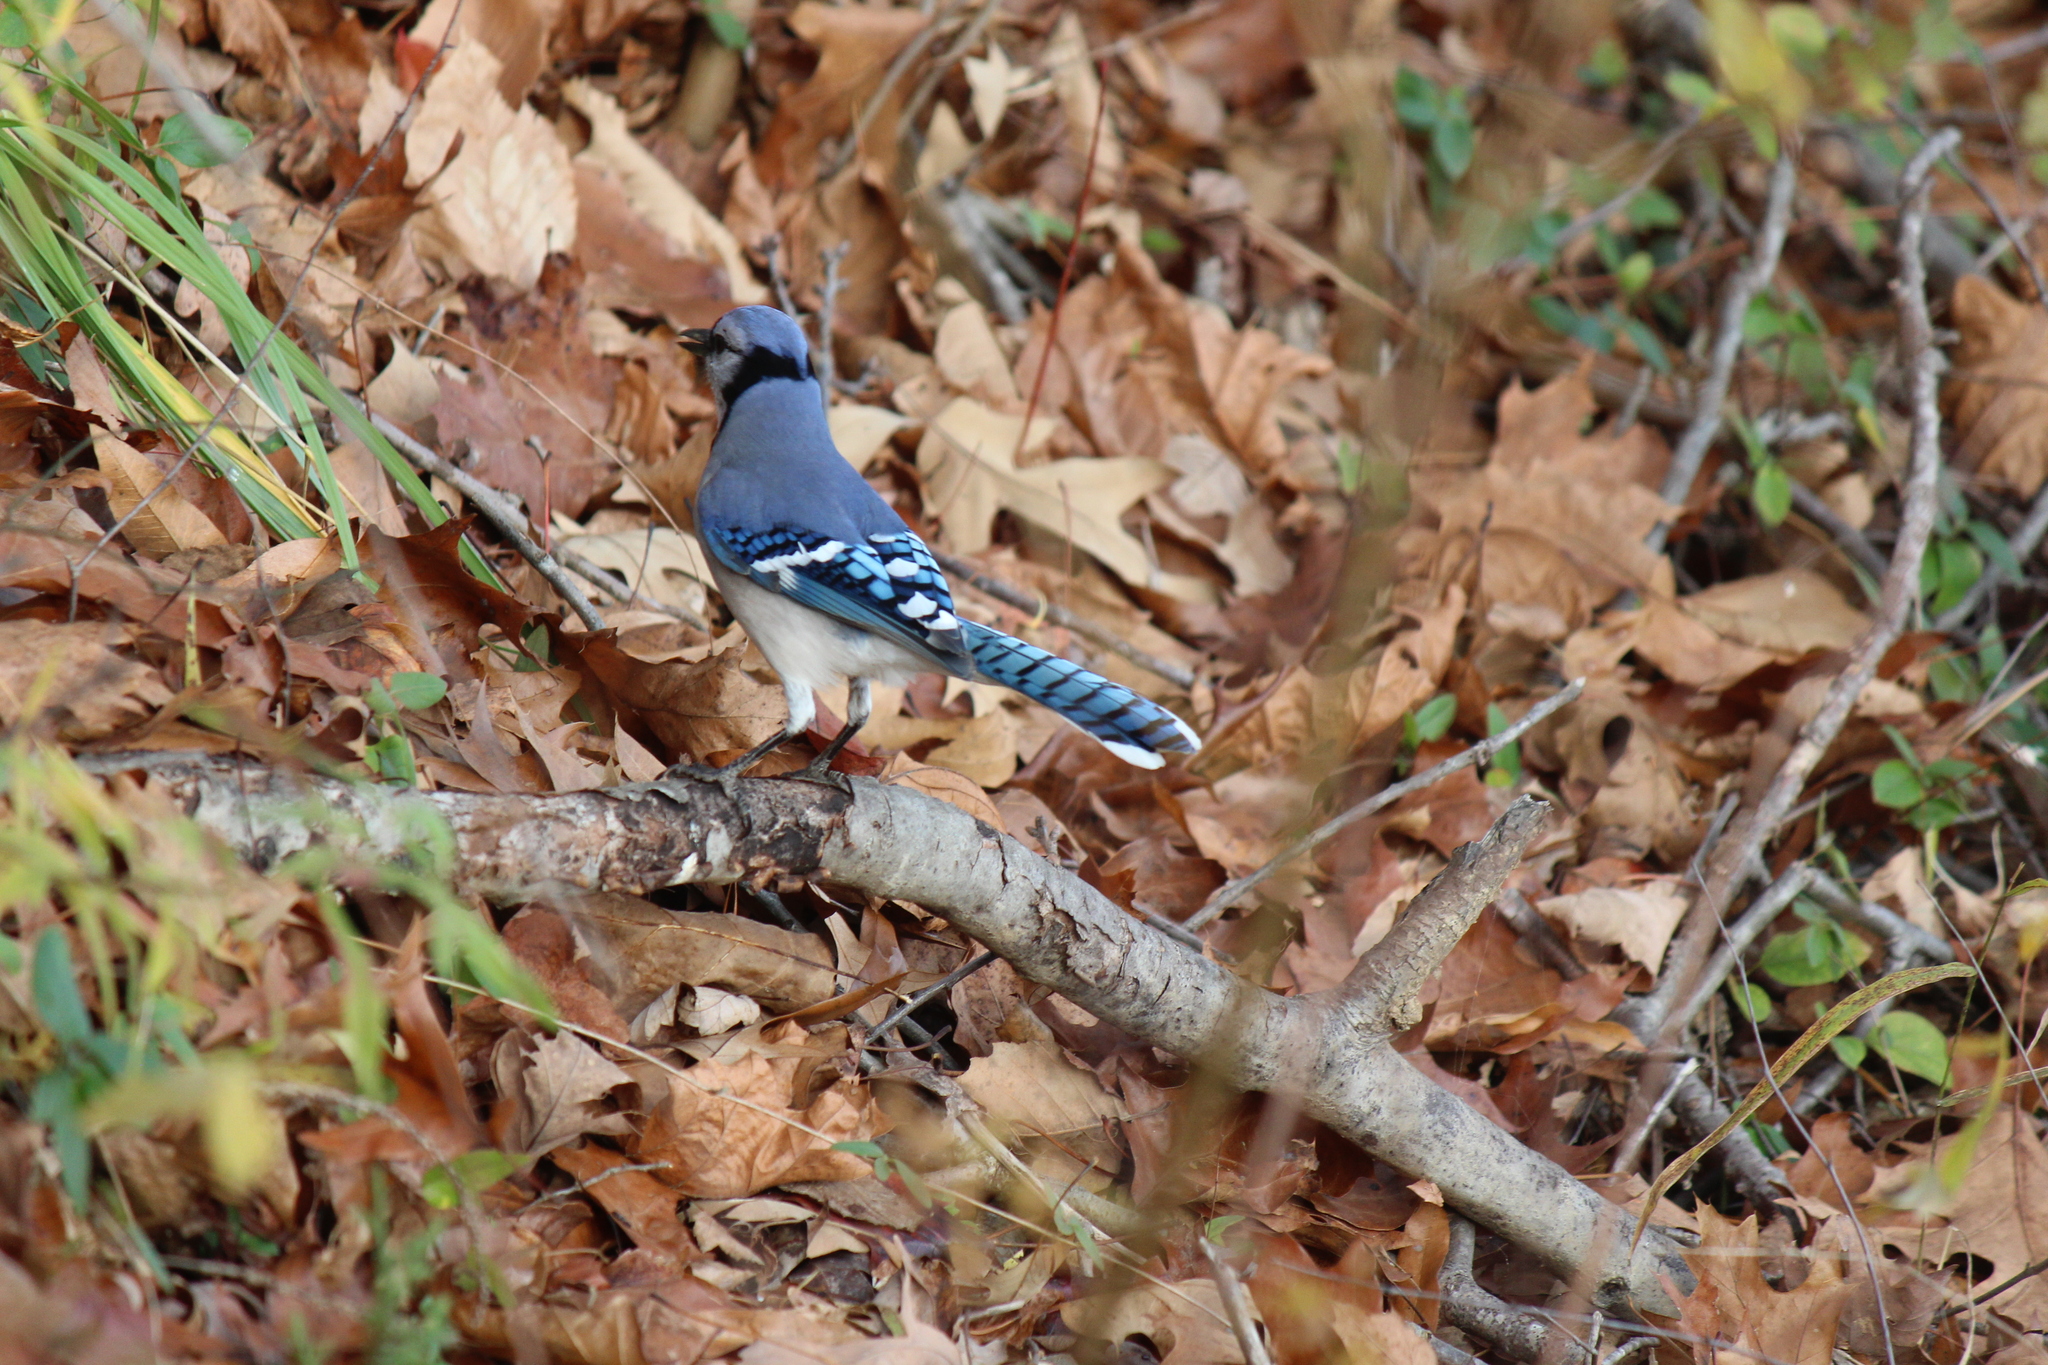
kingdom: Animalia
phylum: Chordata
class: Aves
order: Passeriformes
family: Corvidae
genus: Cyanocitta
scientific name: Cyanocitta cristata
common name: Blue jay
